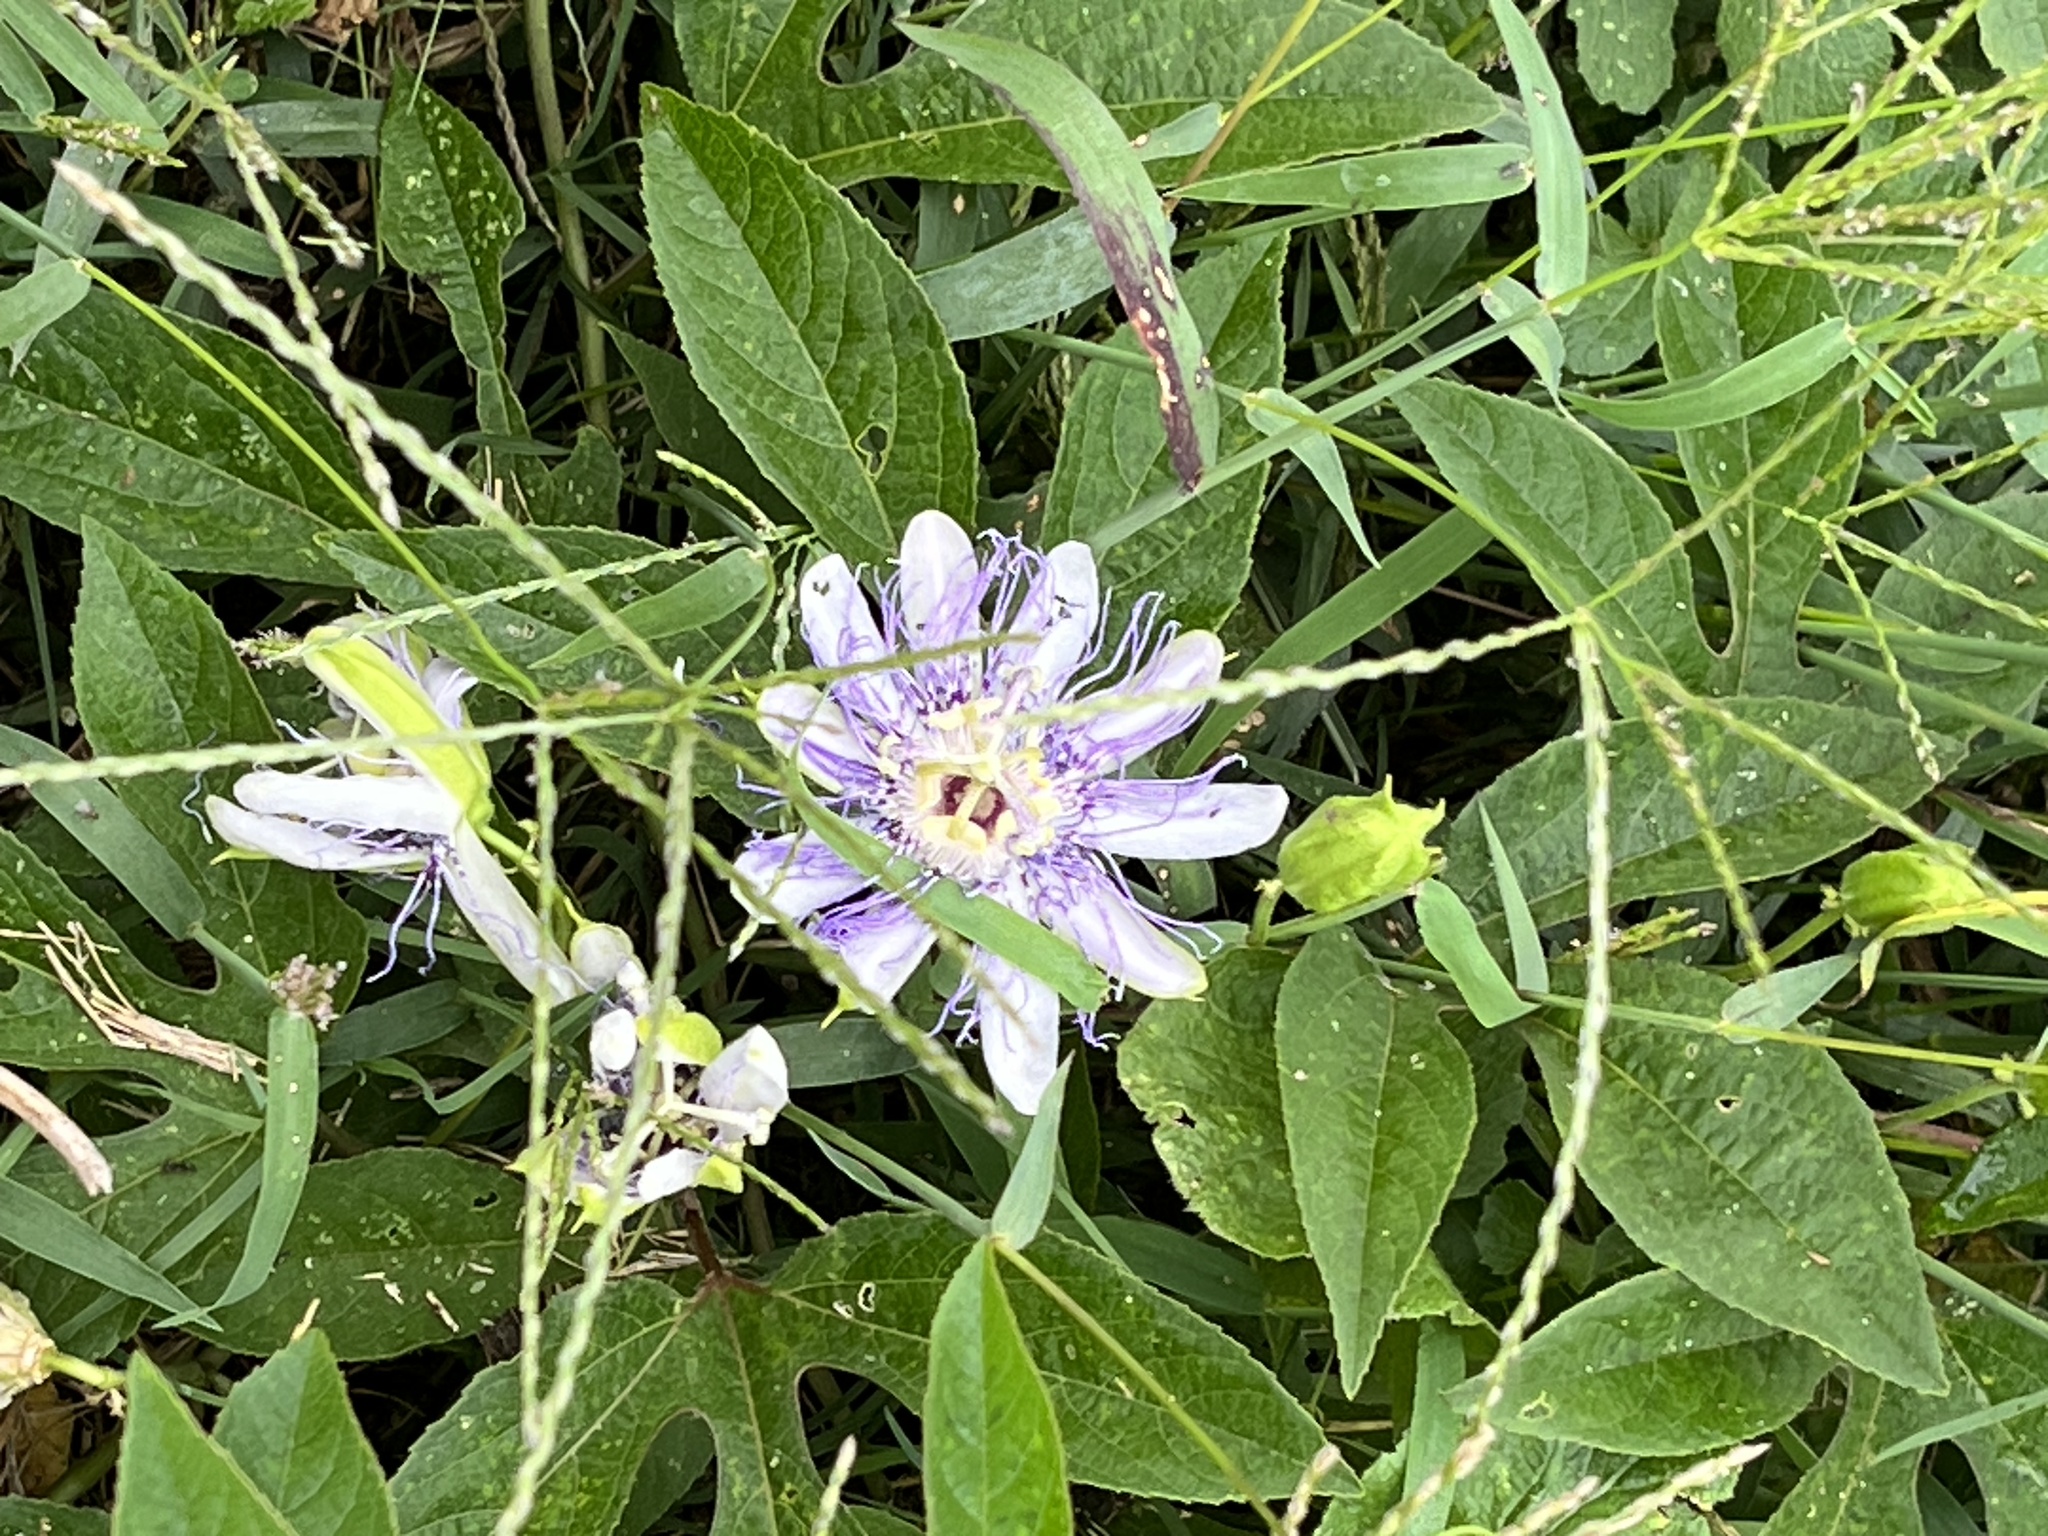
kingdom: Plantae
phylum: Tracheophyta
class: Magnoliopsida
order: Malpighiales
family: Passifloraceae
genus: Passiflora
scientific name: Passiflora incarnata
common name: Apricot-vine
